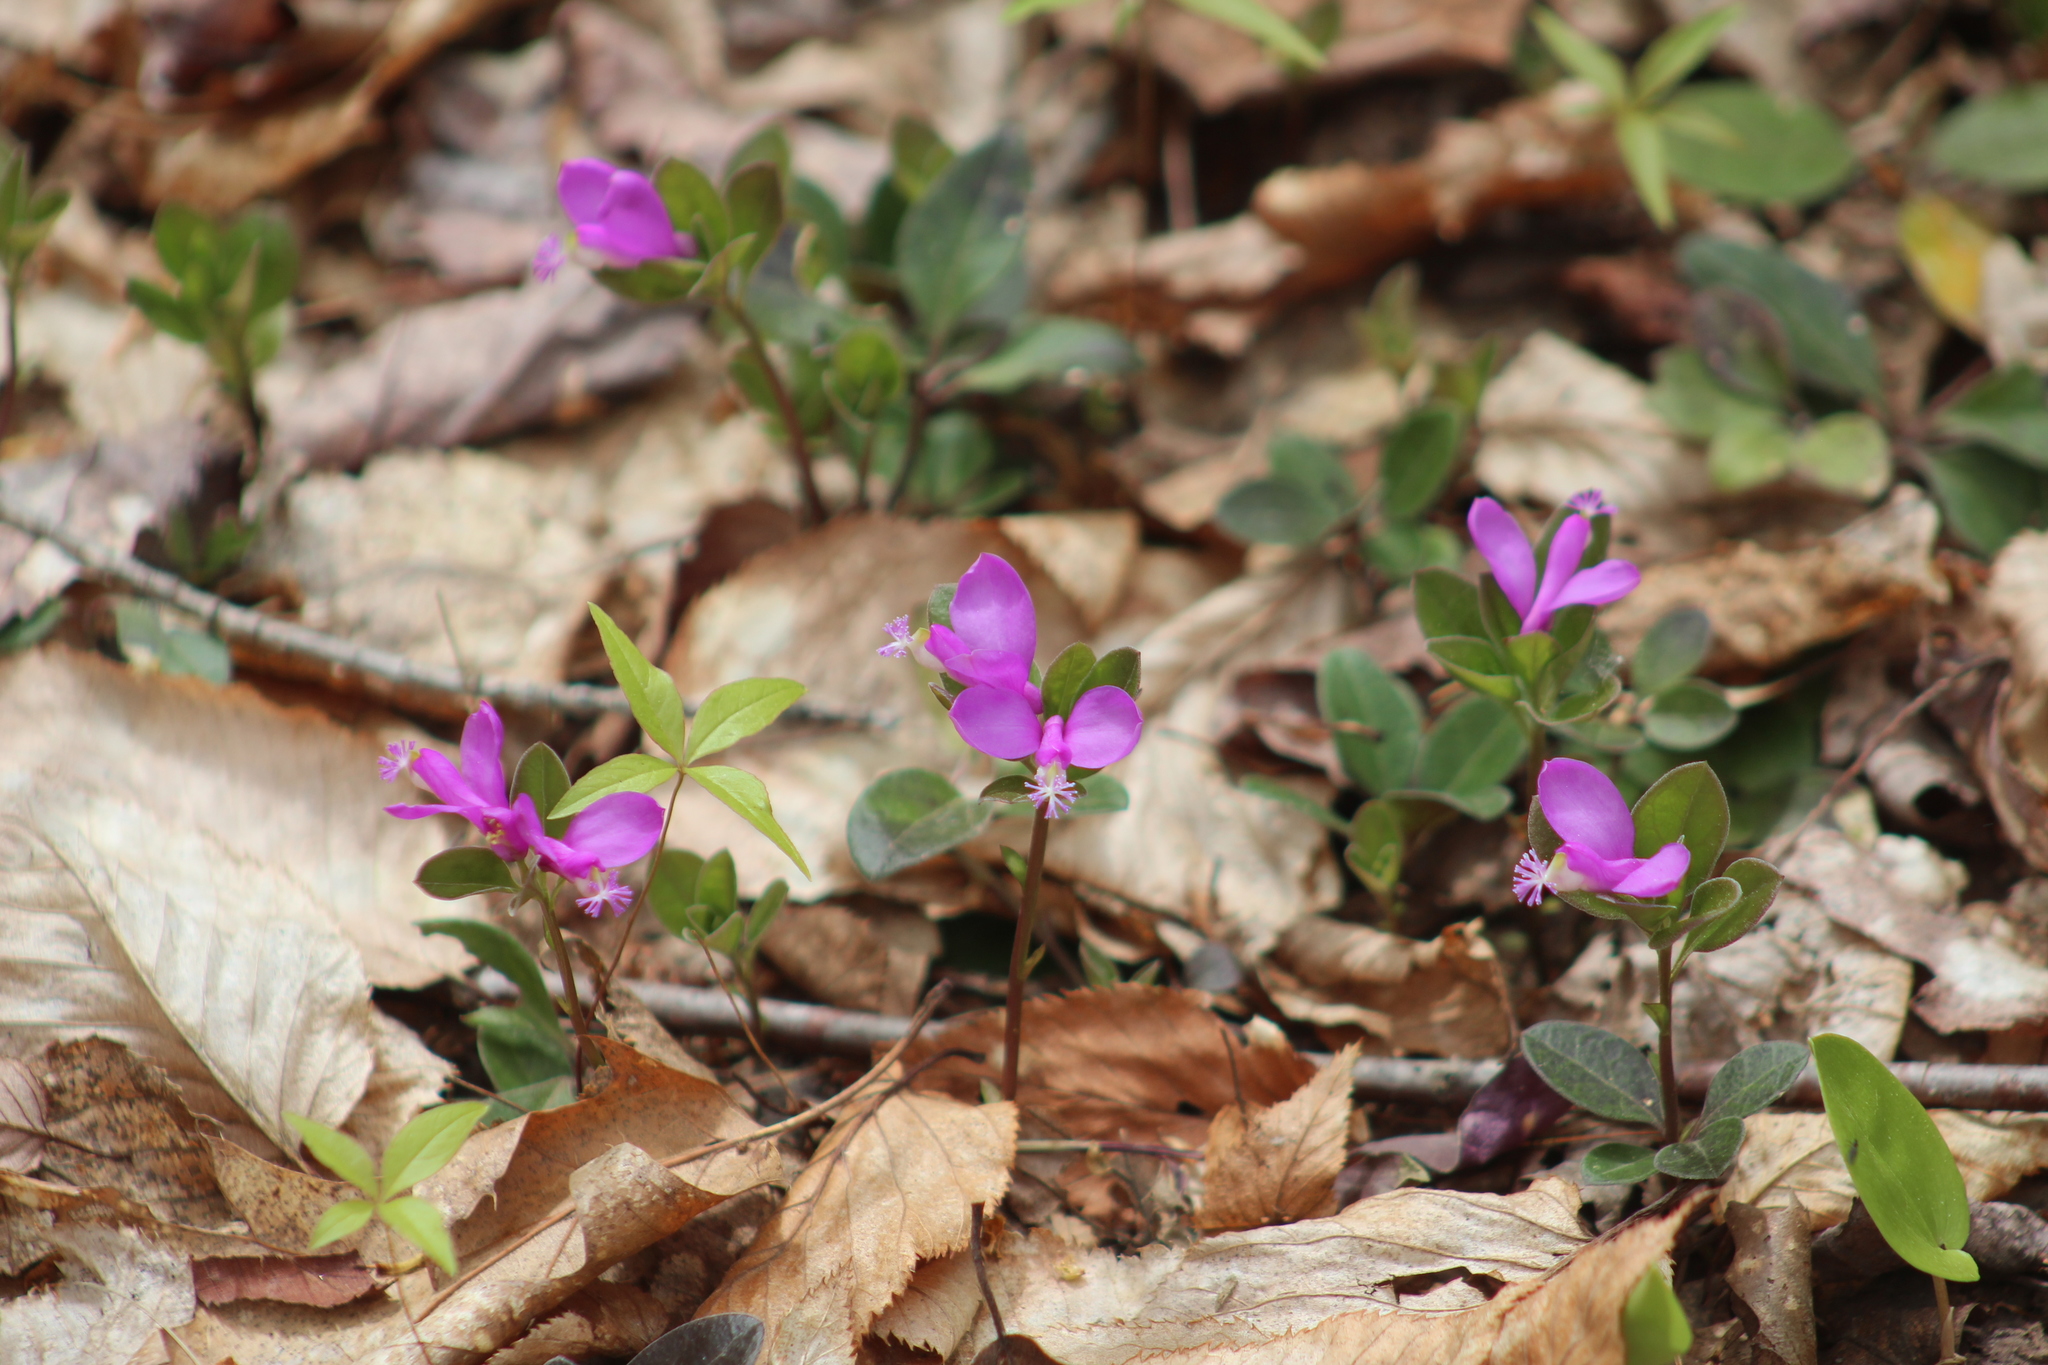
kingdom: Plantae
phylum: Tracheophyta
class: Magnoliopsida
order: Fabales
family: Polygalaceae
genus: Polygaloides
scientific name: Polygaloides paucifolia
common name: Bird-on-the-wing
